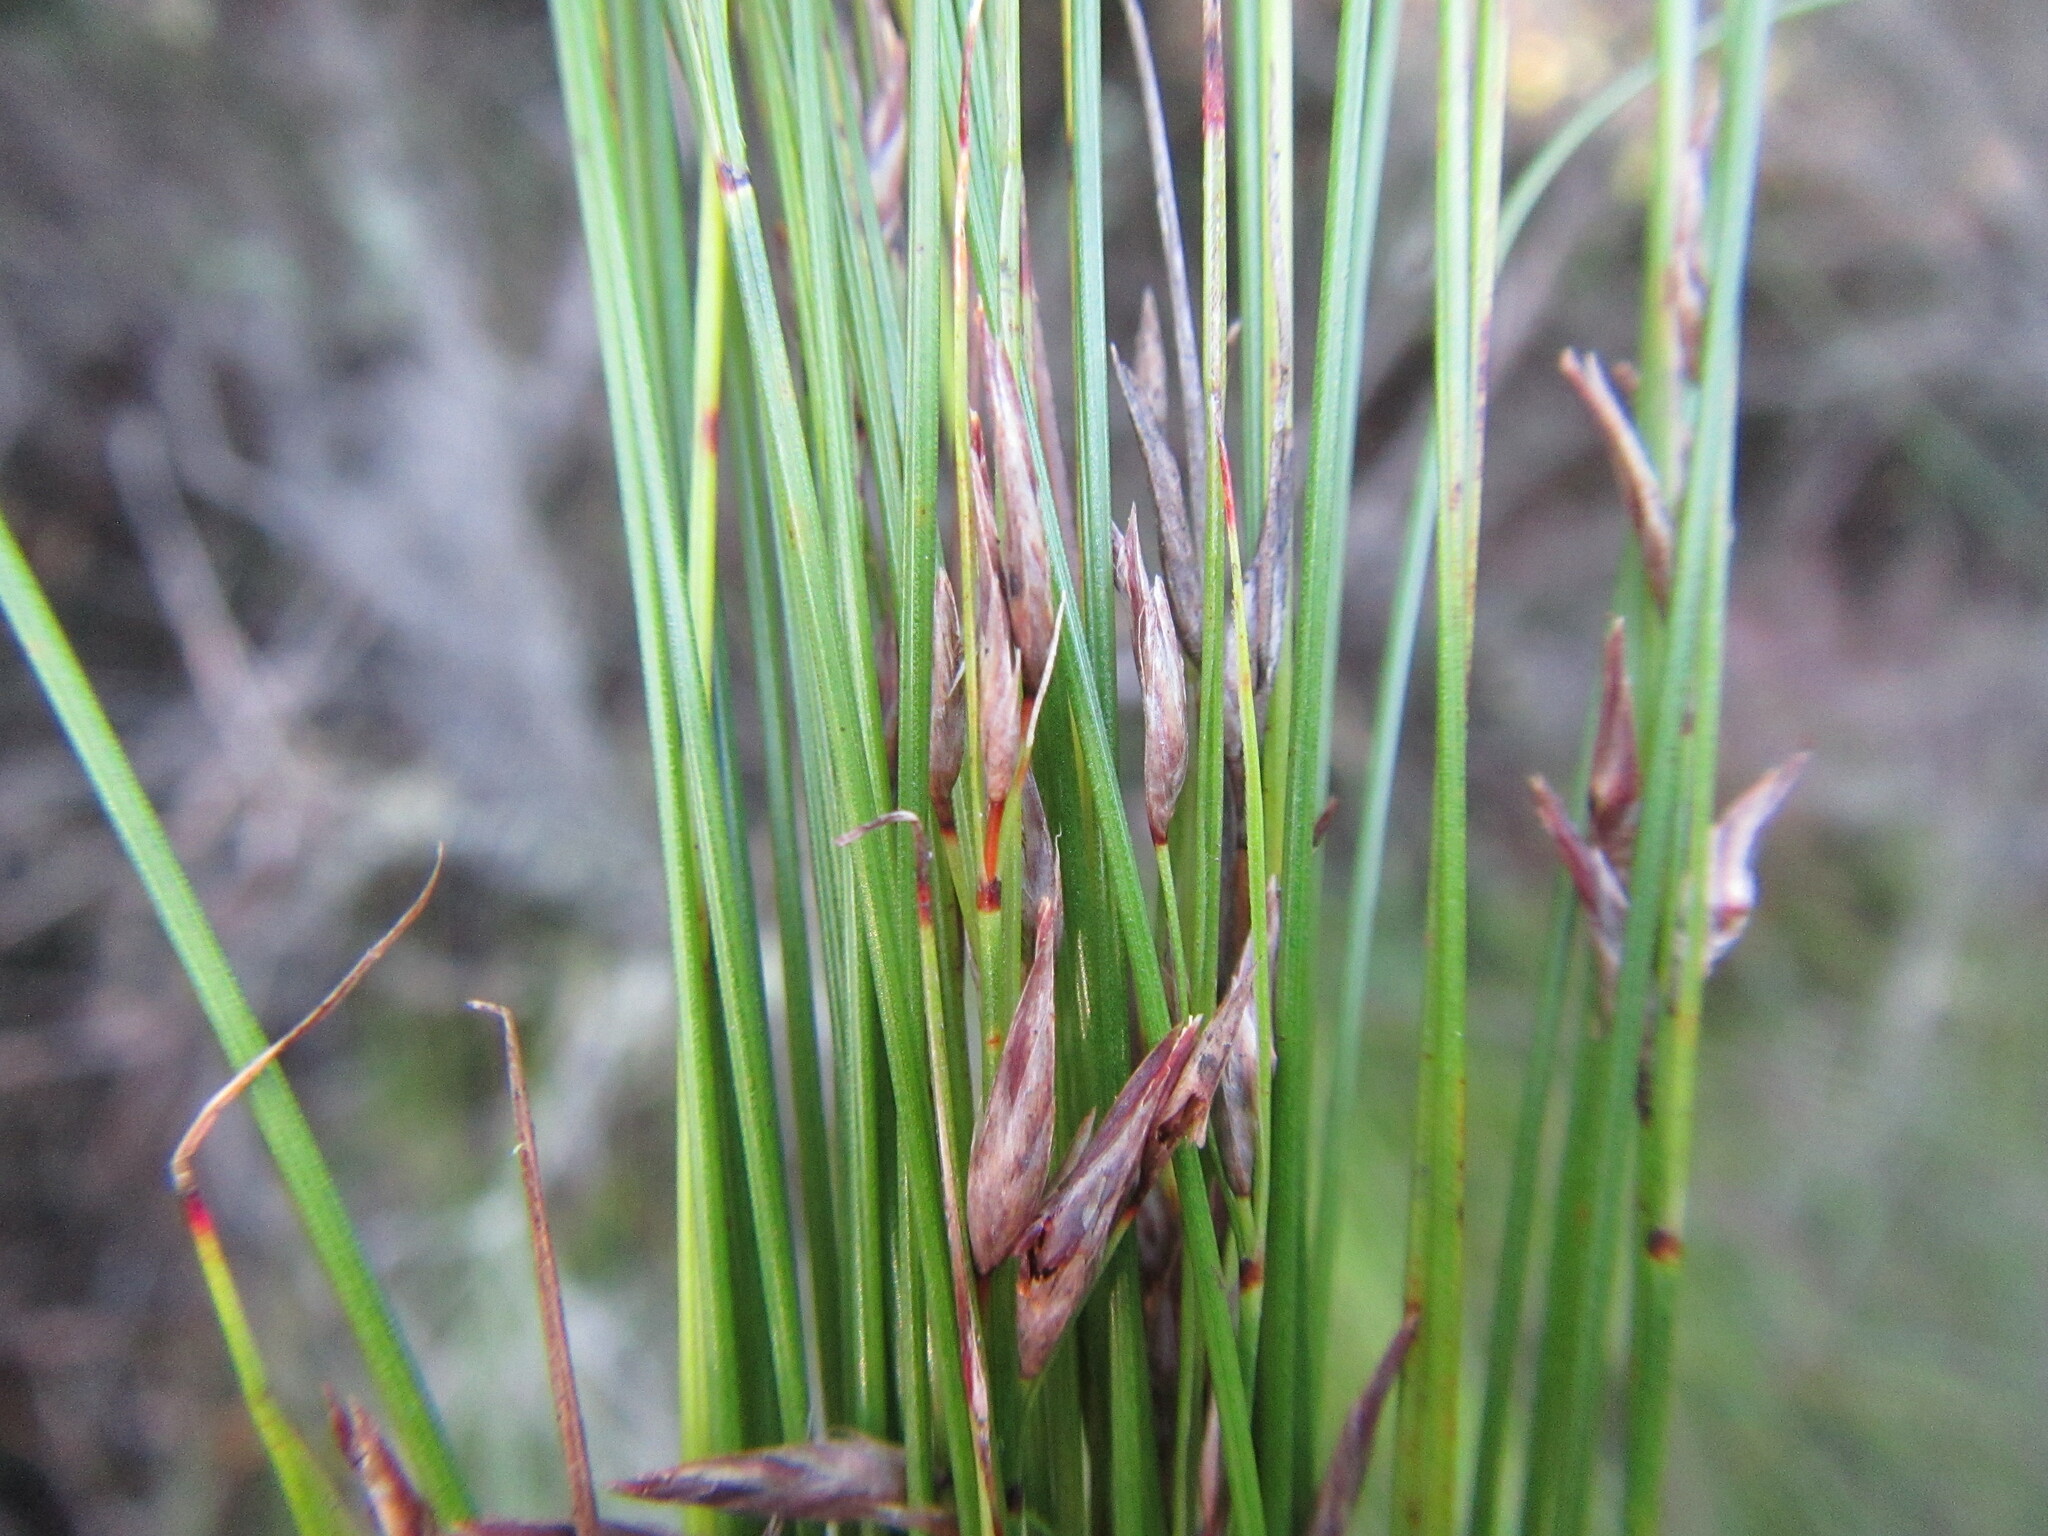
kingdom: Plantae
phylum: Tracheophyta
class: Liliopsida
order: Poales
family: Cyperaceae
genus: Schoenus
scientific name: Schoenus schonlandii
